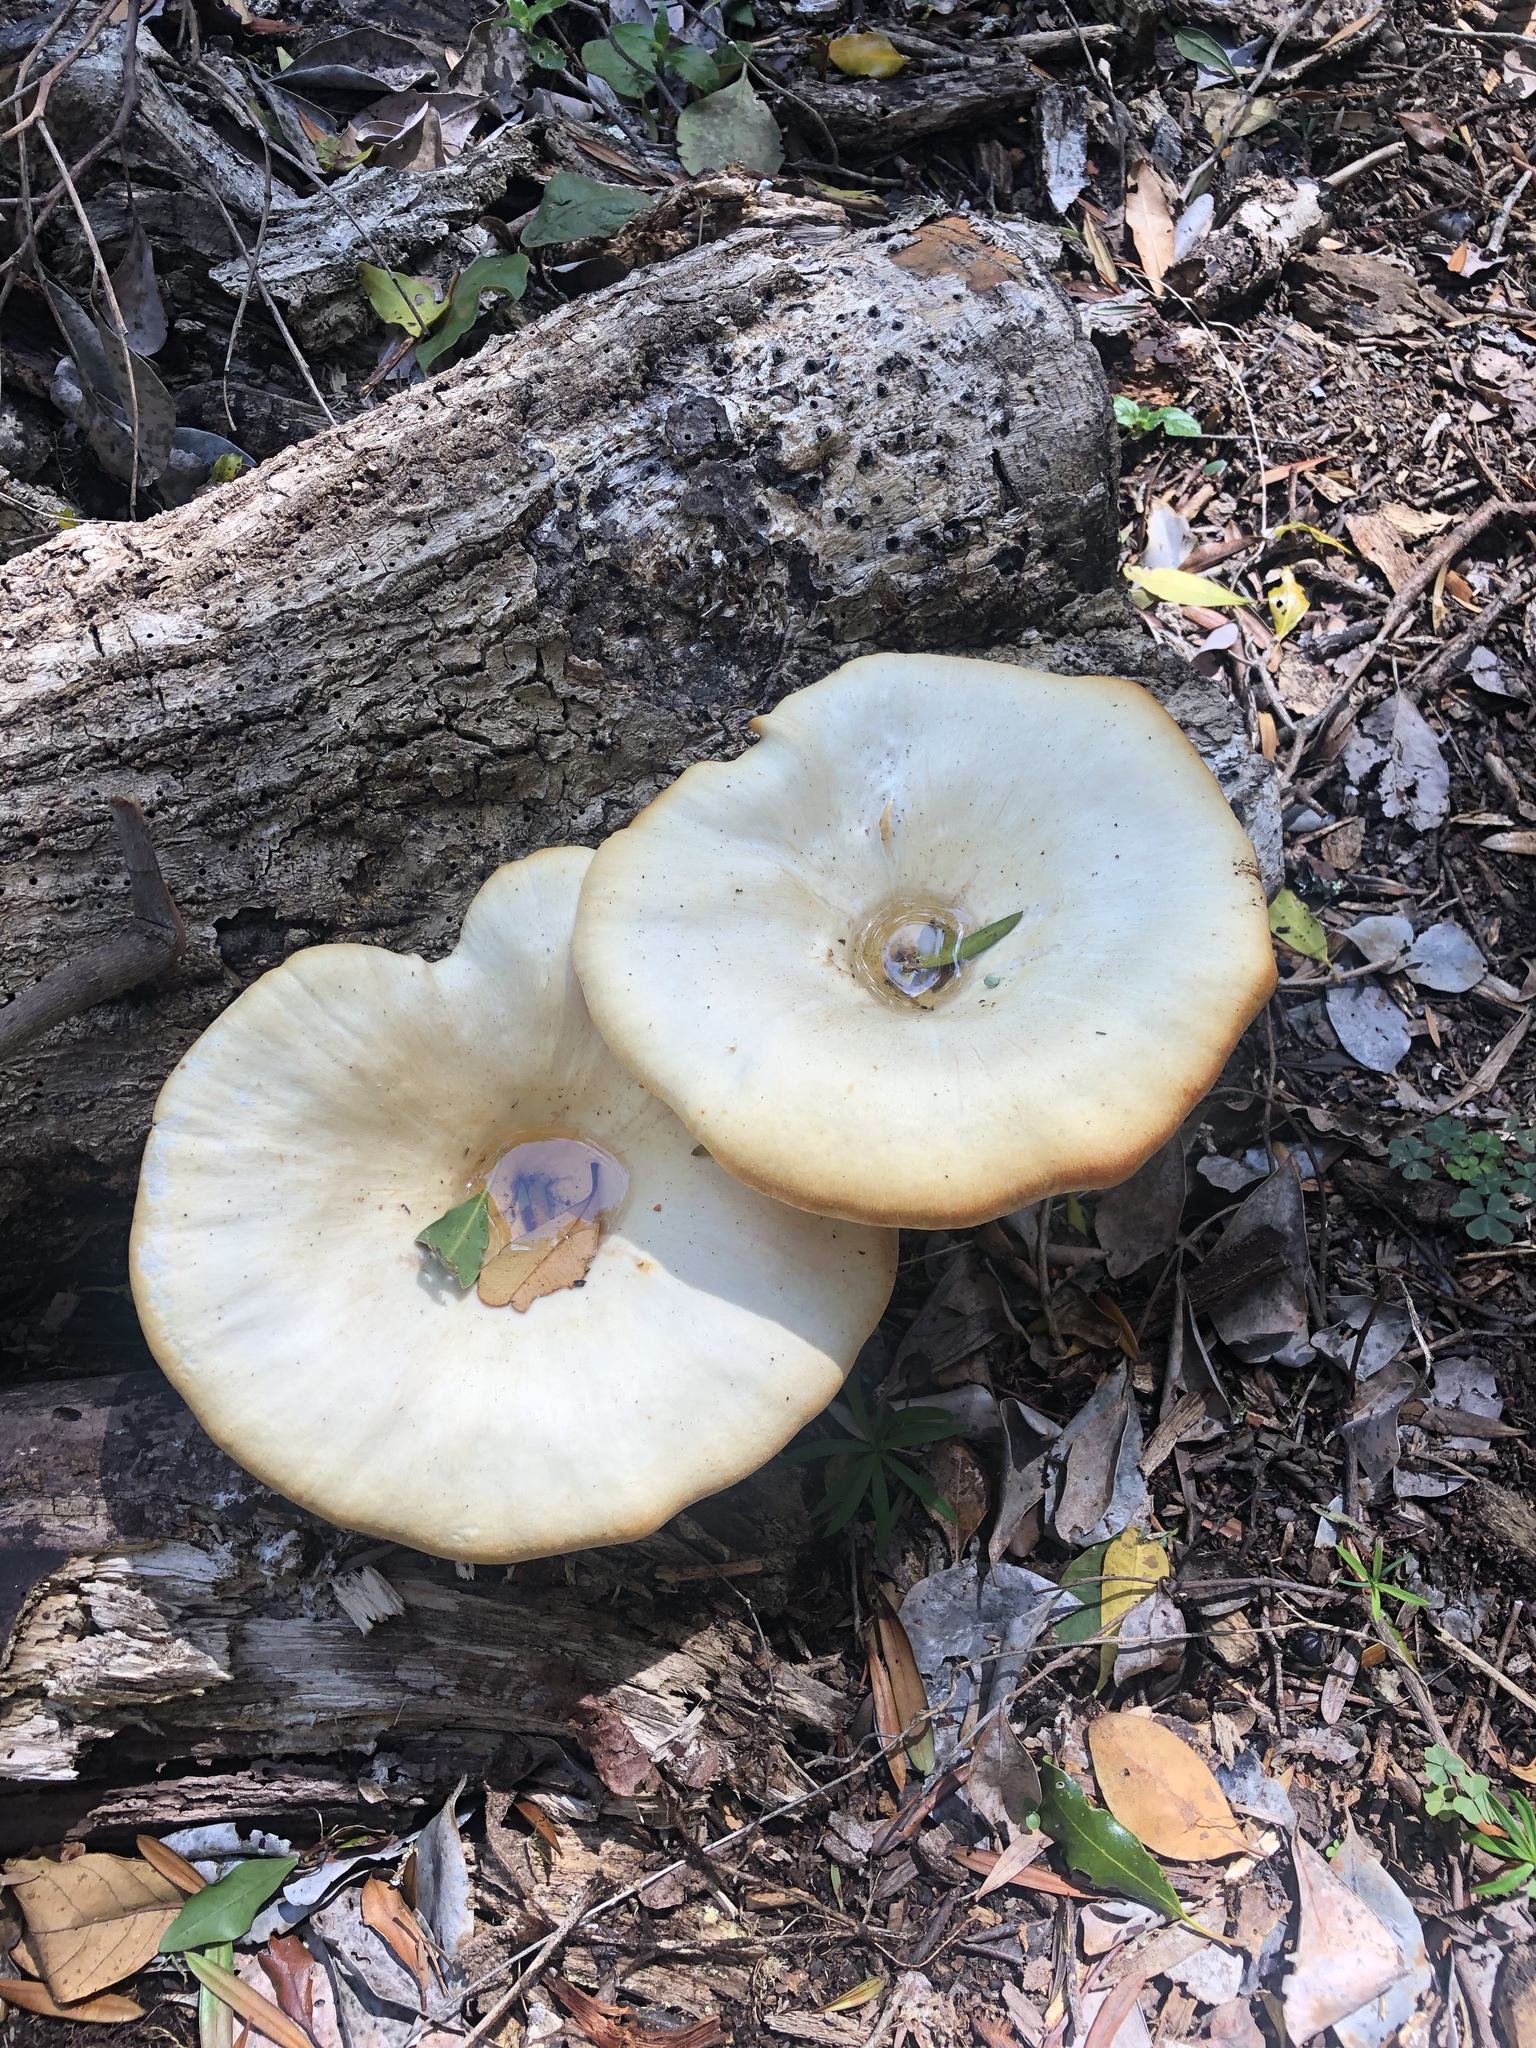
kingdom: Fungi
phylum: Basidiomycota
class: Agaricomycetes
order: Polyporales
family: Polyporaceae
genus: Lentinus
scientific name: Lentinus sajor-caju
